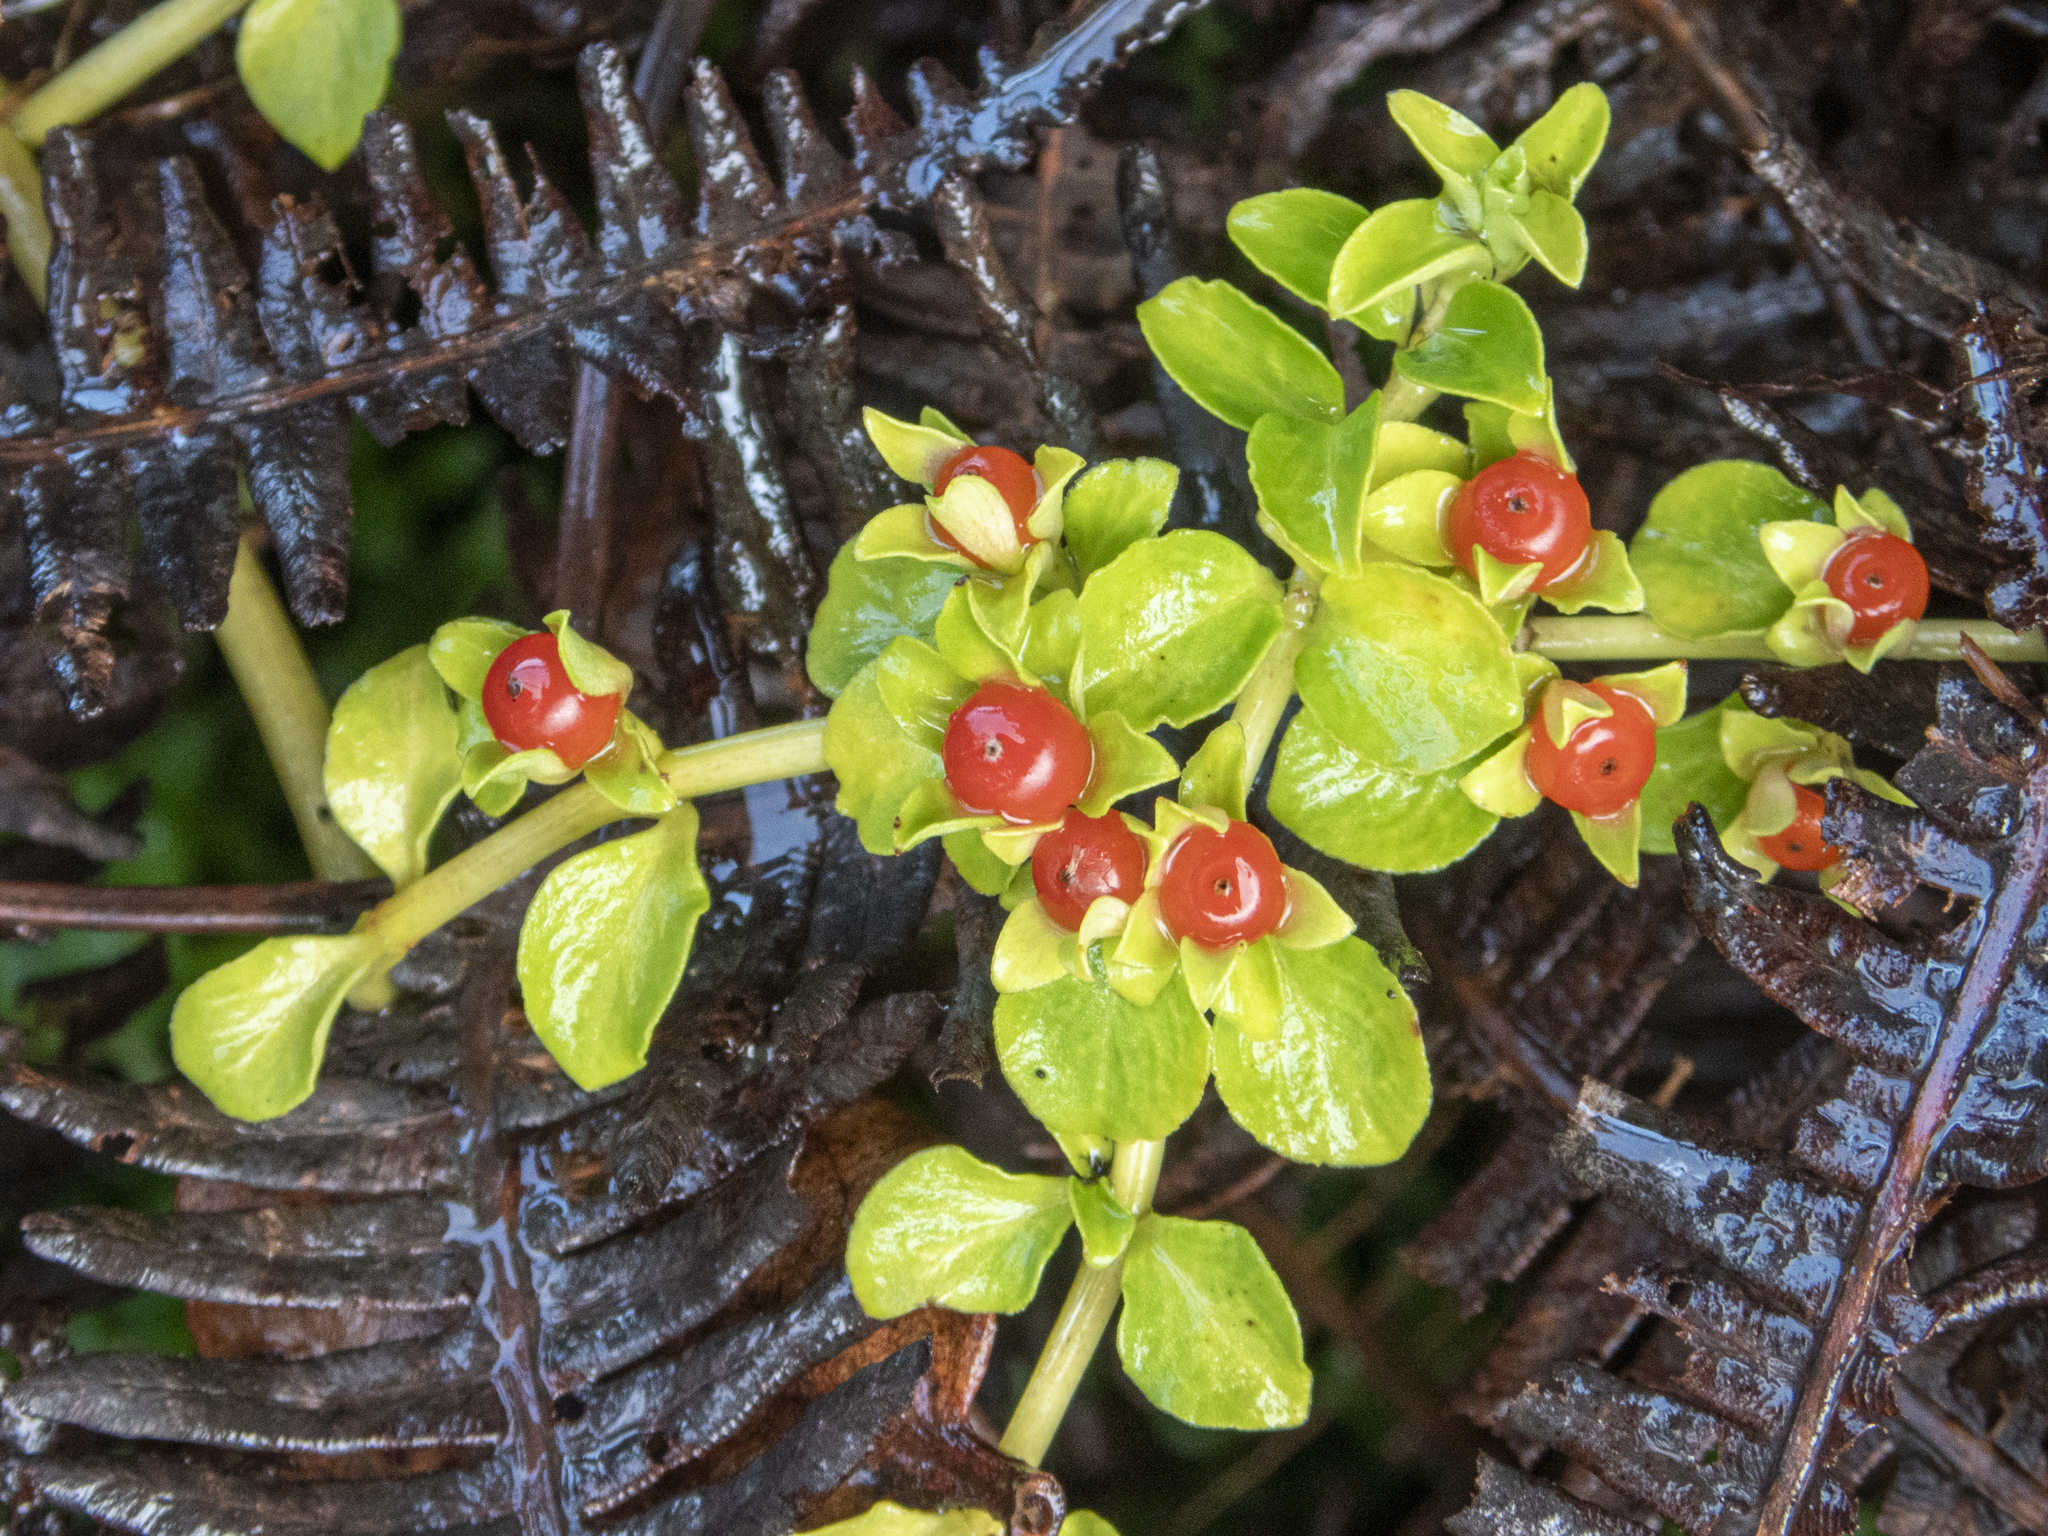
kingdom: Plantae
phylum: Tracheophyta
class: Magnoliopsida
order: Gentianales
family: Rubiaceae
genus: Nertera
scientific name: Nertera granadensis
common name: Beadplant
